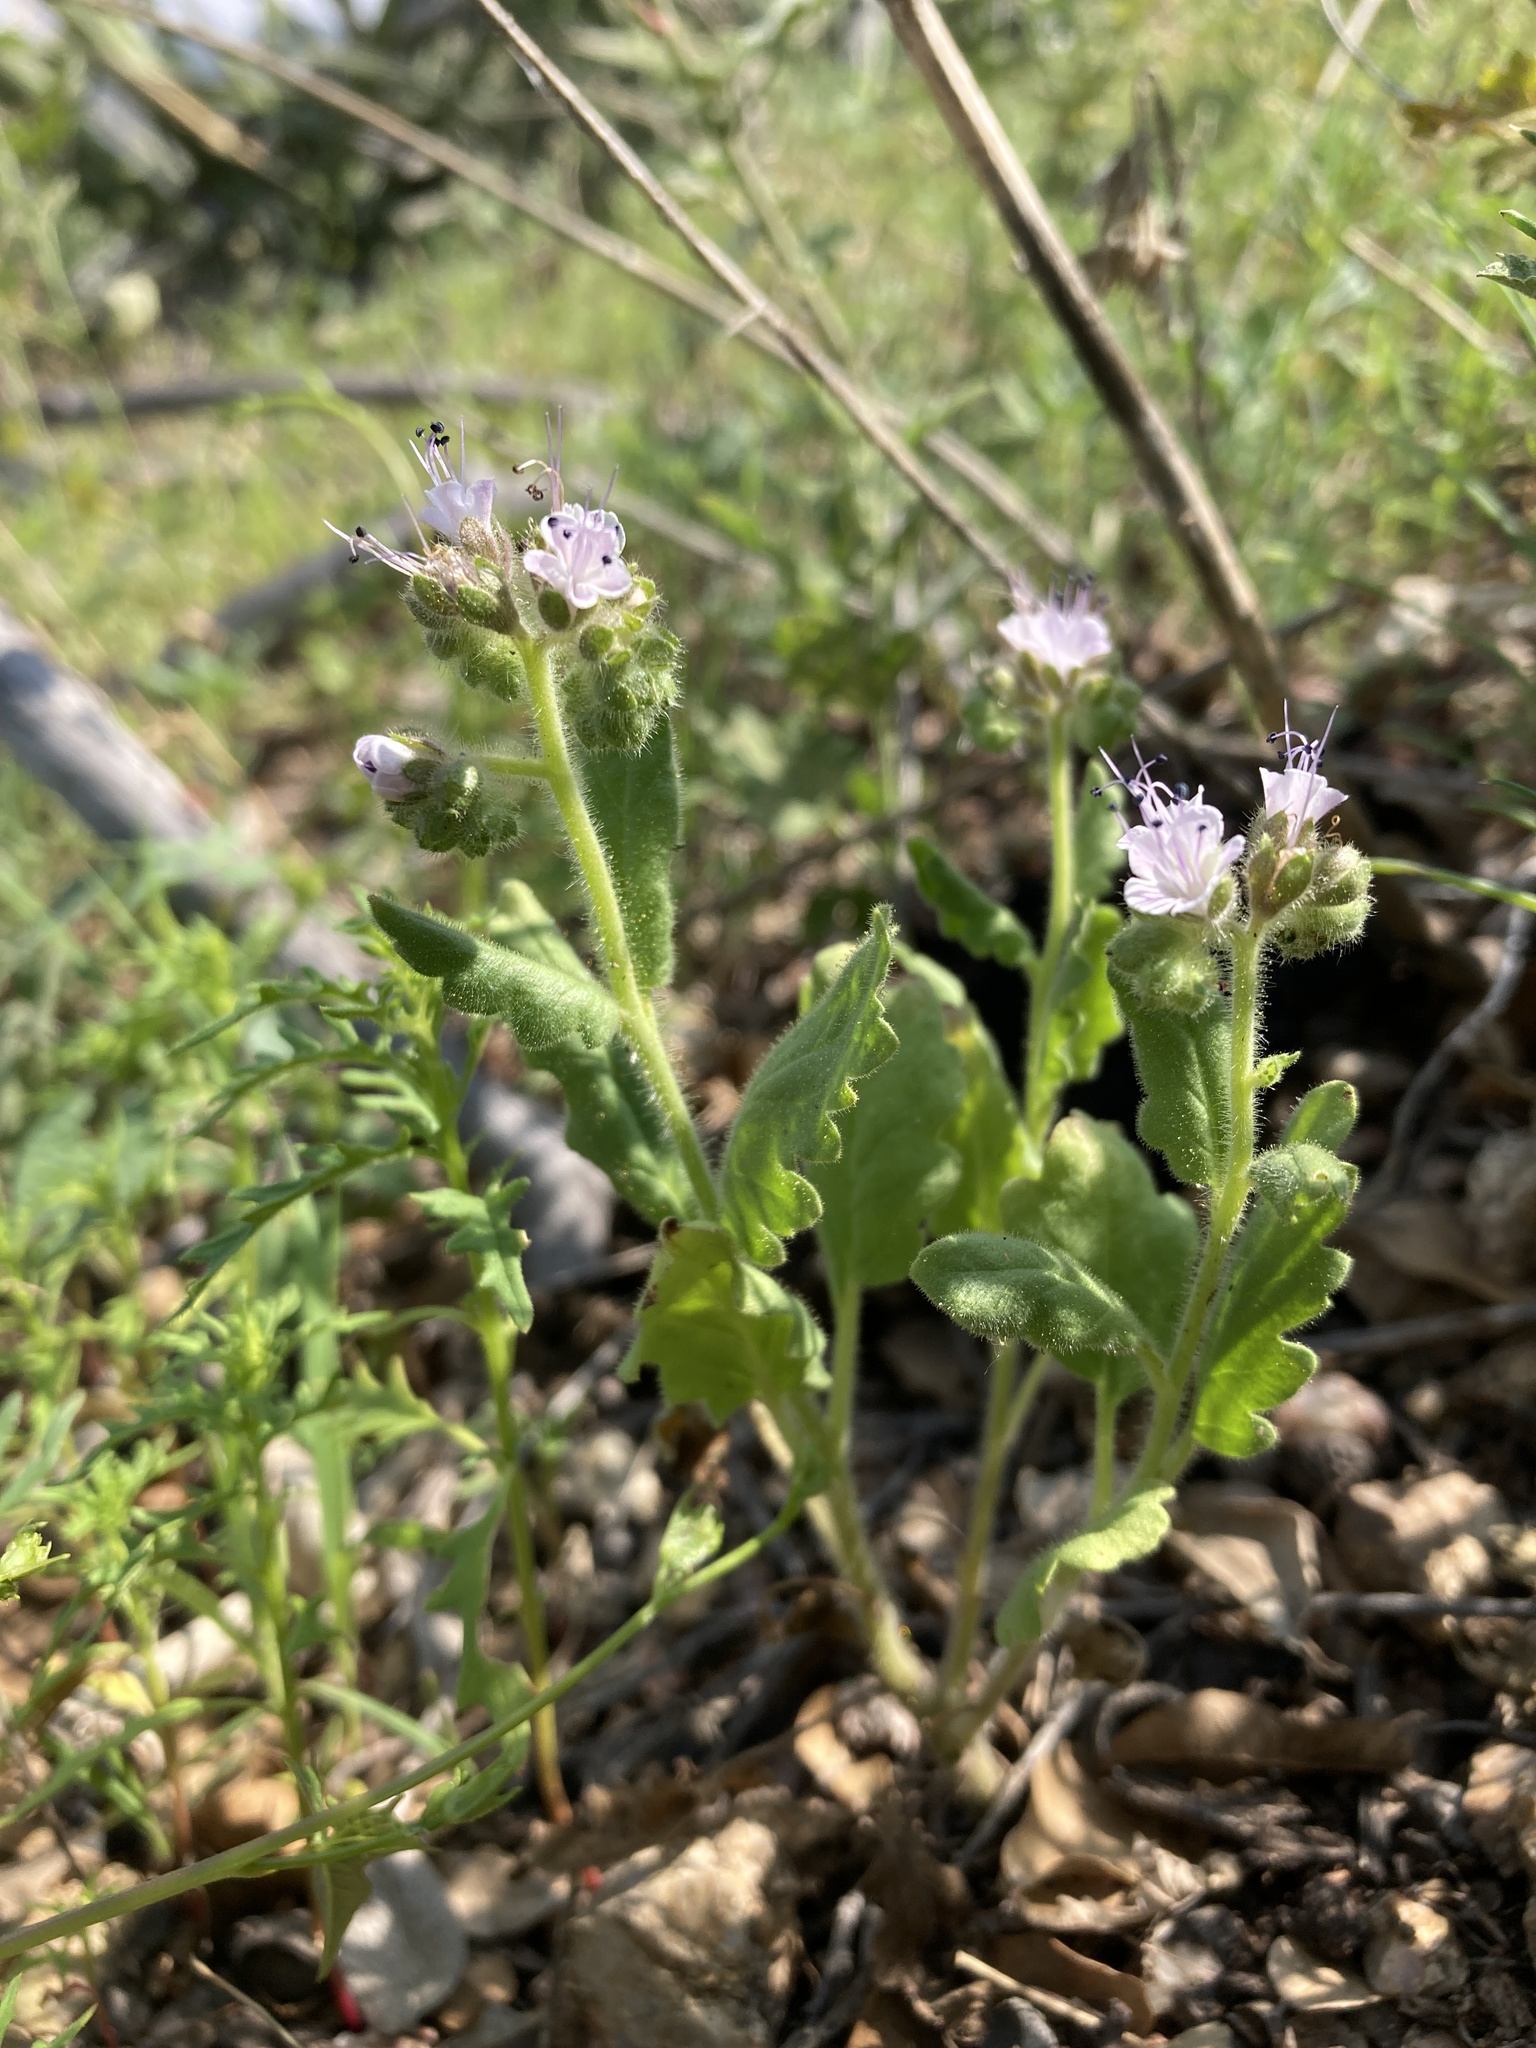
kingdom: Plantae
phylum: Tracheophyta
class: Magnoliopsida
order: Boraginales
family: Hydrophyllaceae
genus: Phacelia
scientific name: Phacelia integrifolia
